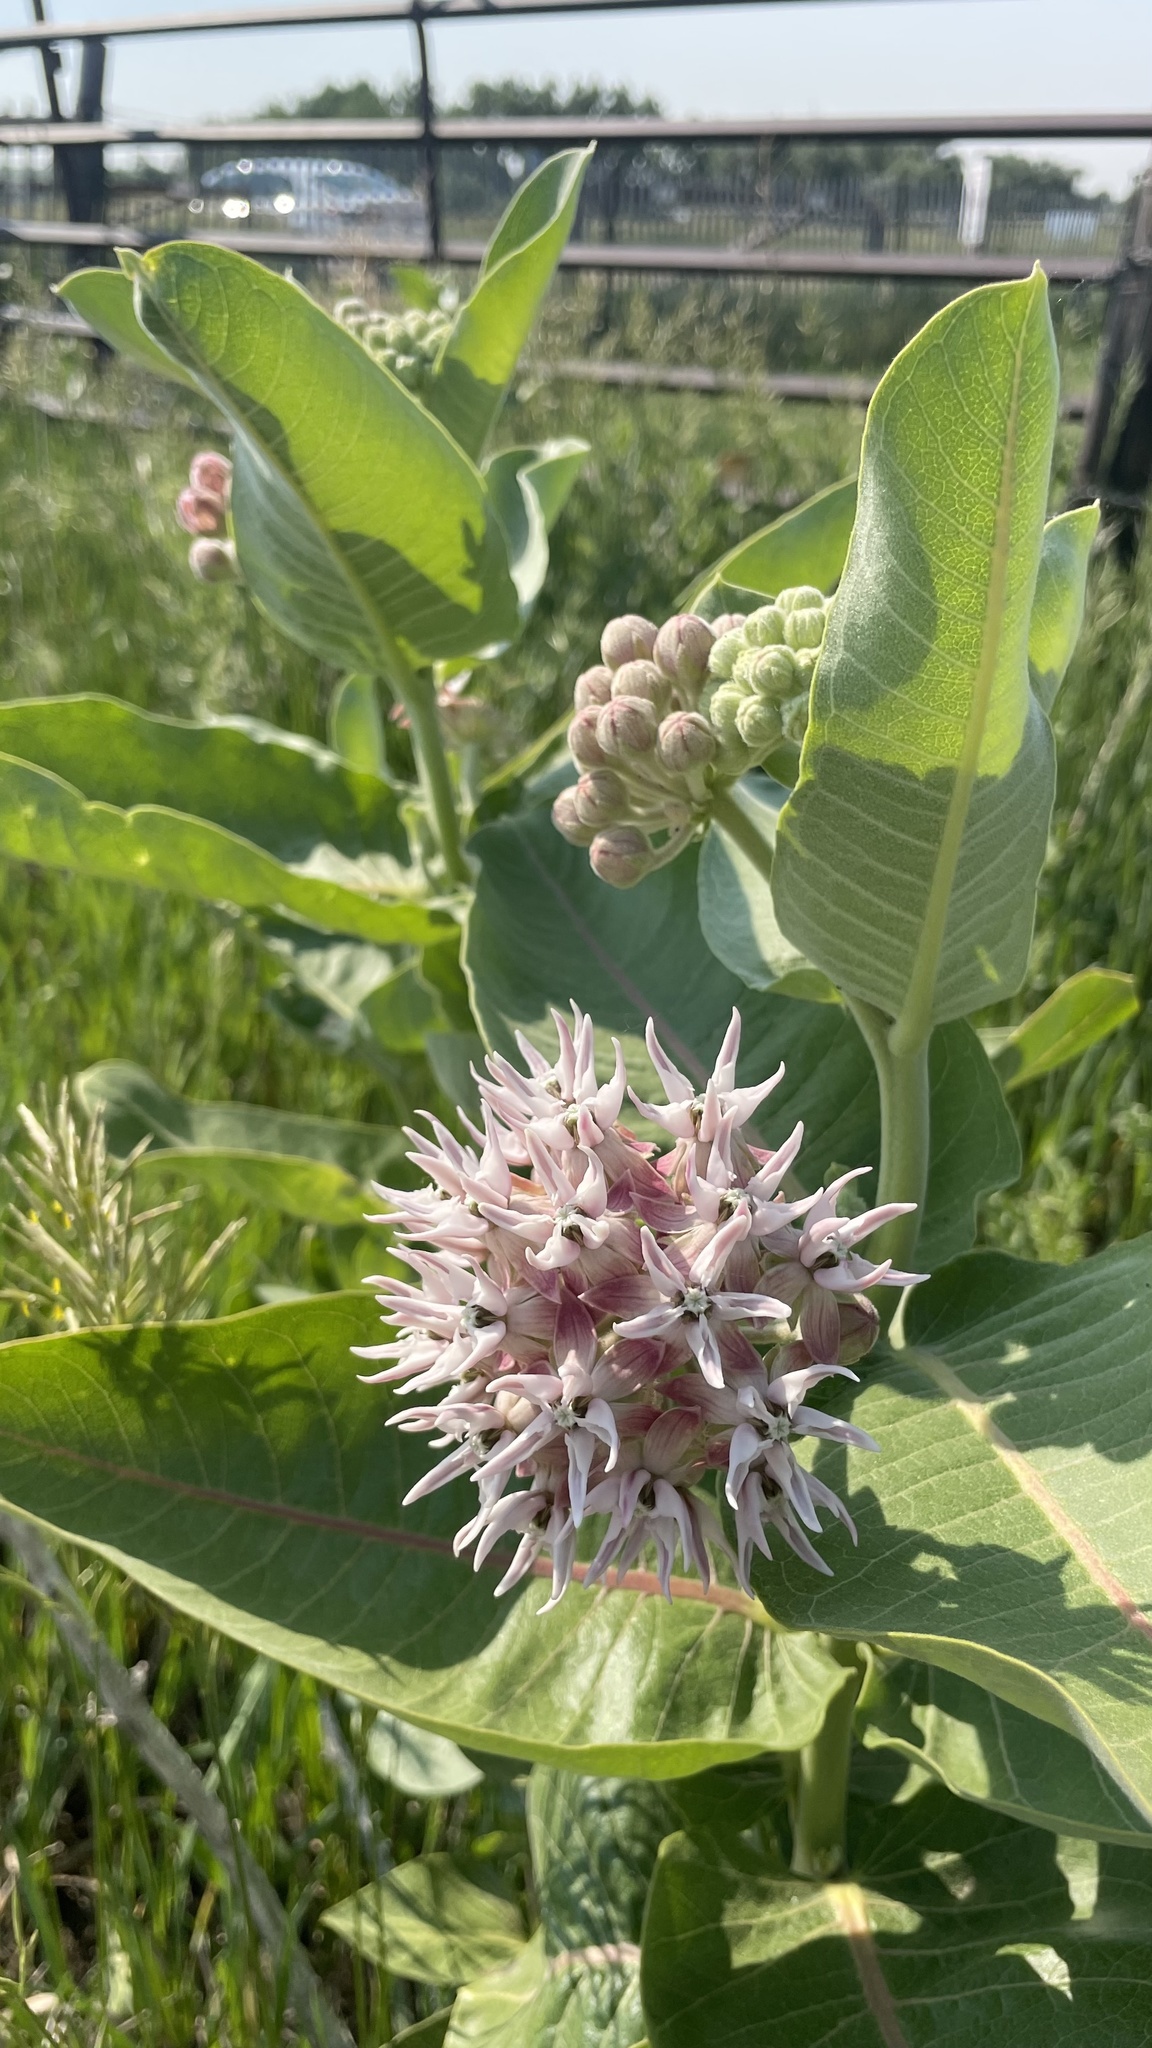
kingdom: Plantae
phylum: Tracheophyta
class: Magnoliopsida
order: Gentianales
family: Apocynaceae
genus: Asclepias
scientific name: Asclepias speciosa
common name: Showy milkweed
